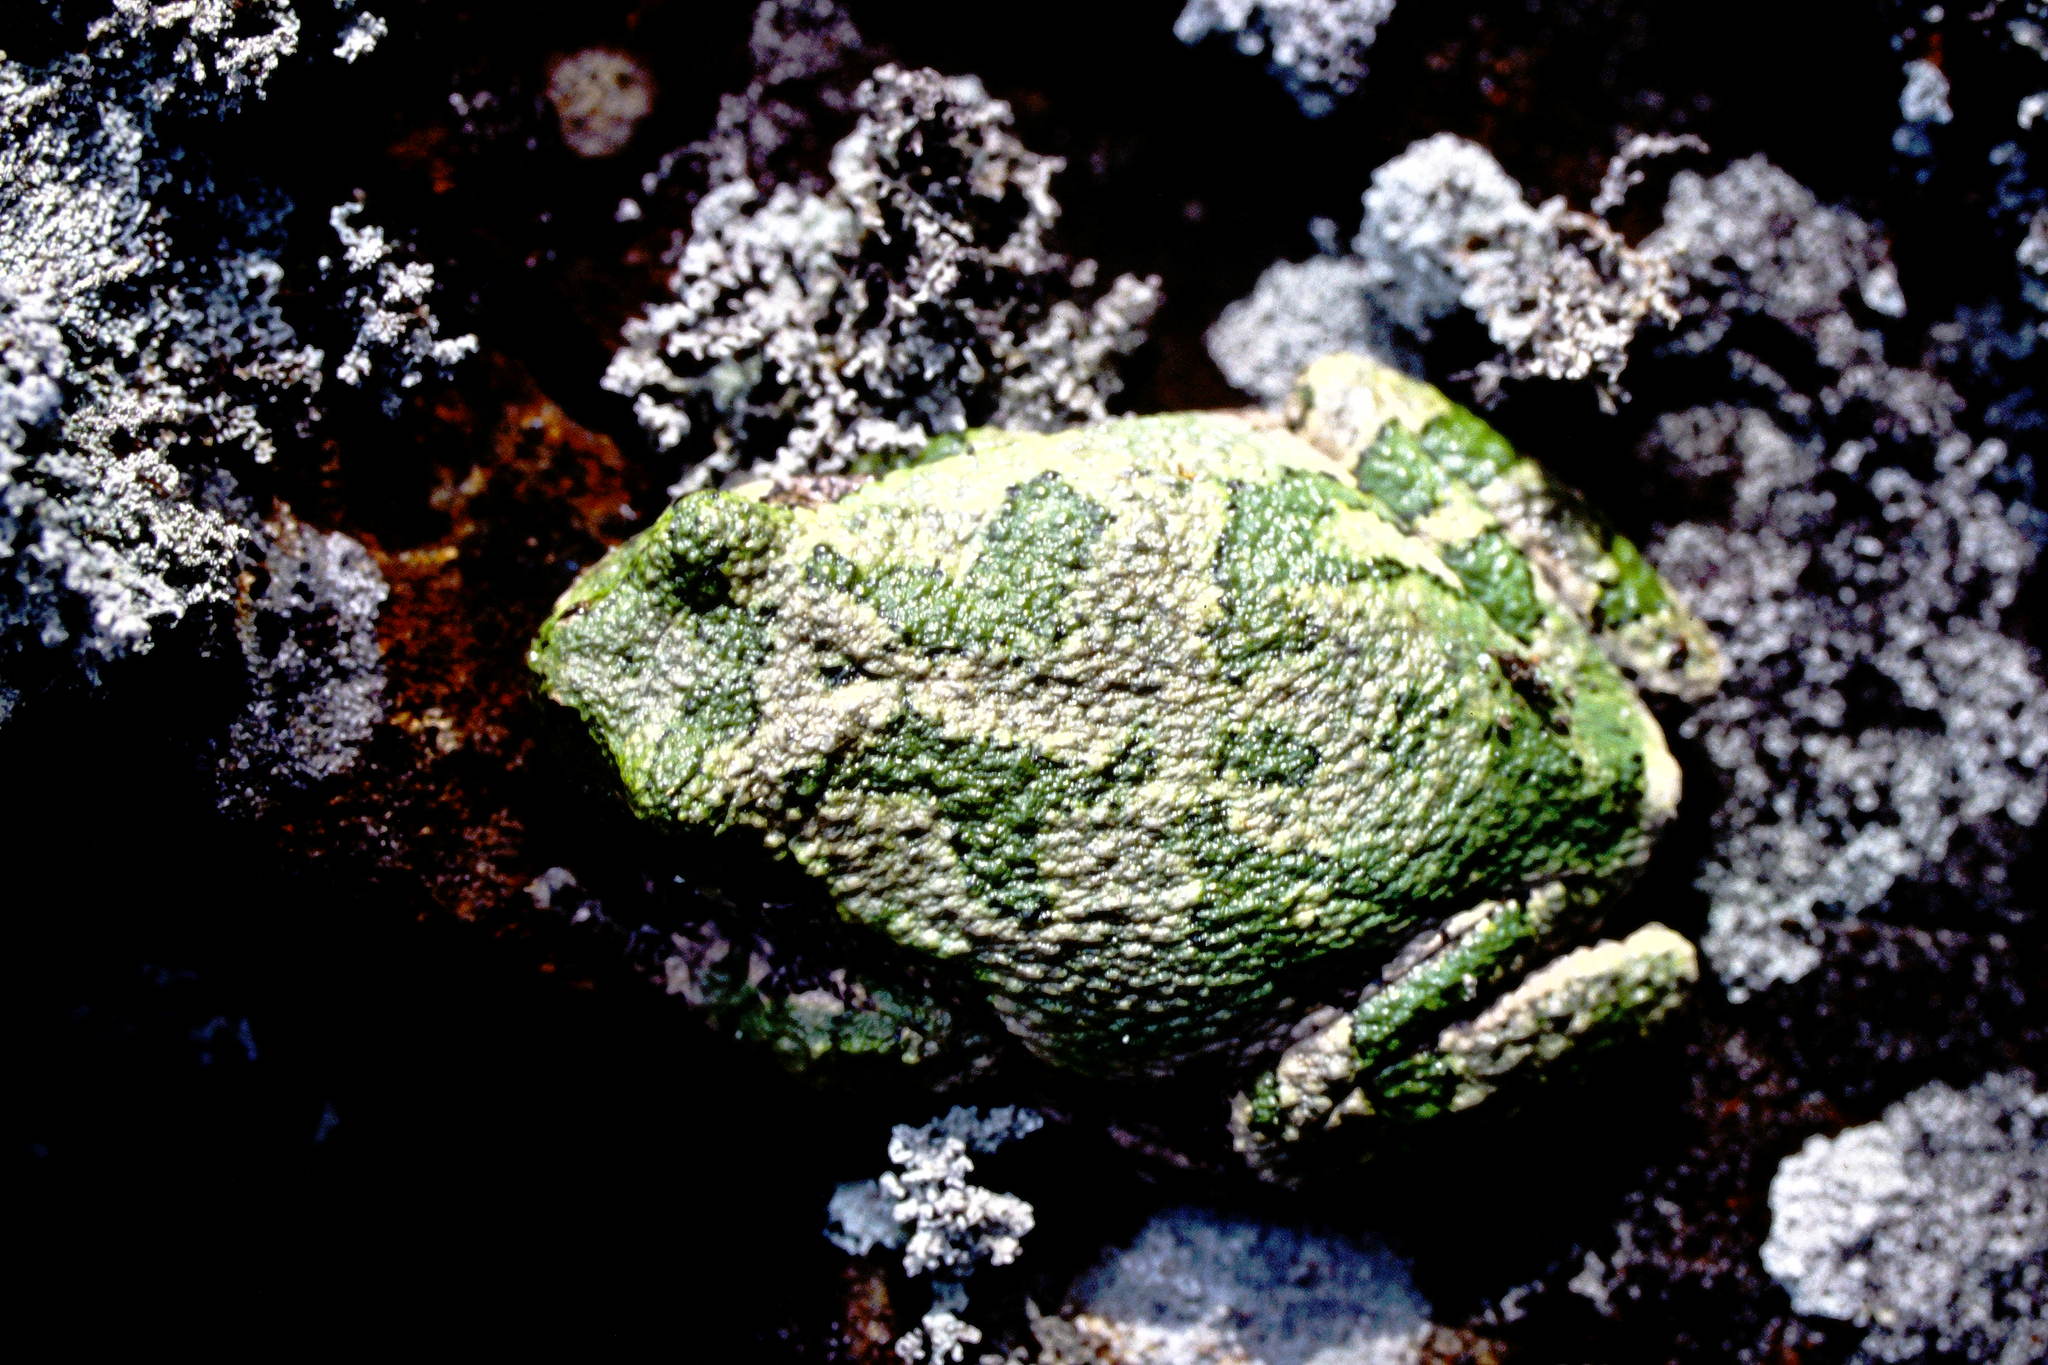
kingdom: Animalia
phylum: Chordata
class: Amphibia
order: Anura
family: Hylidae
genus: Dryophytes
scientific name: Dryophytes versicolor
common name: Gray treefrog
